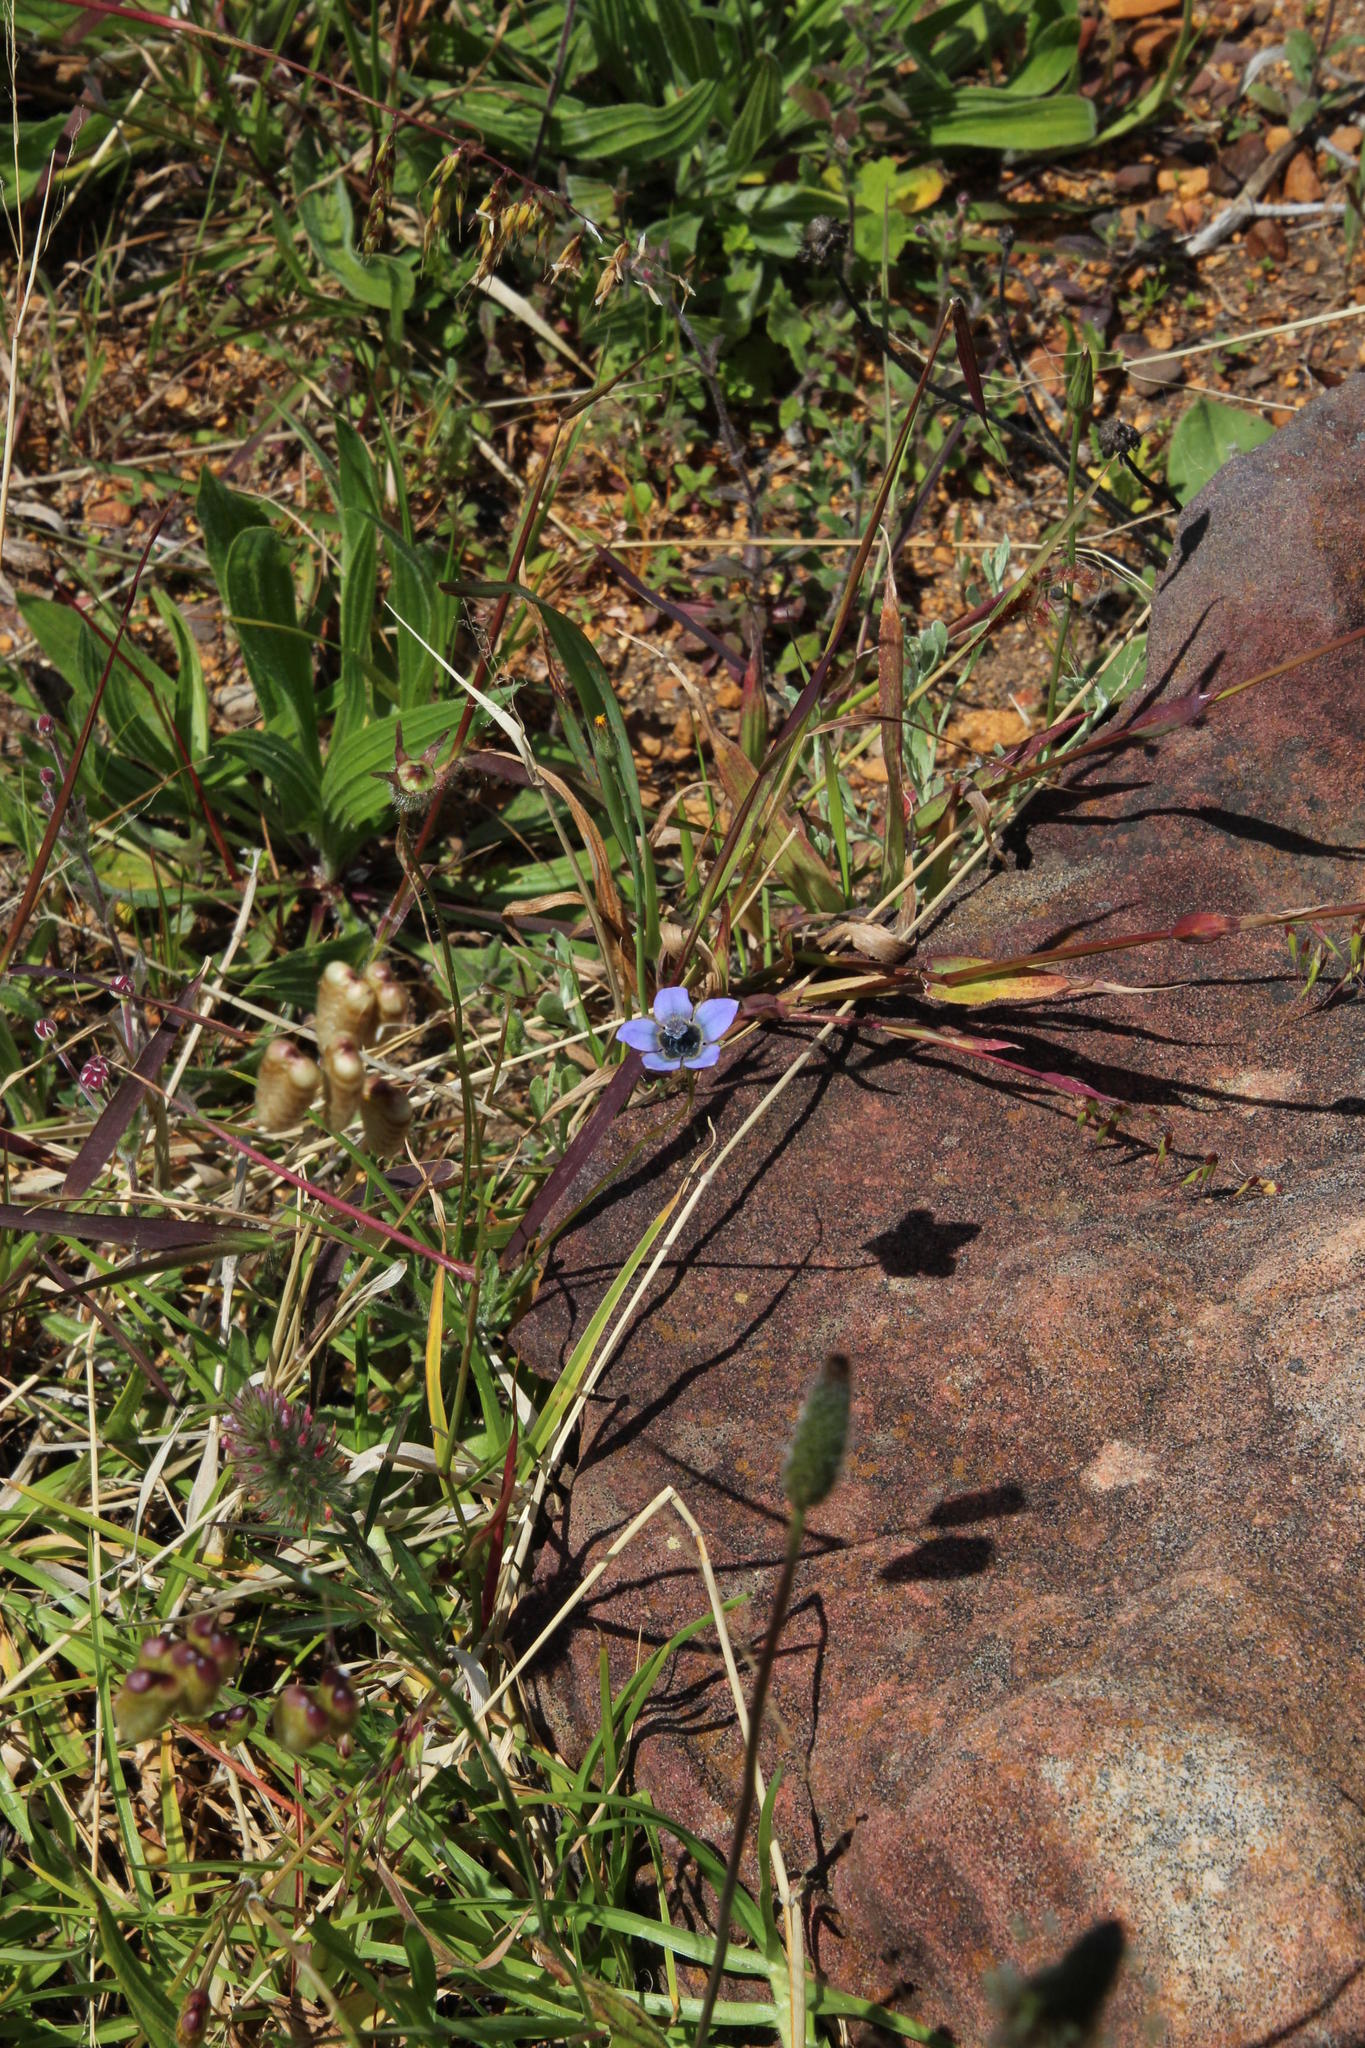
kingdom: Plantae
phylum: Tracheophyta
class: Magnoliopsida
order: Asterales
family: Campanulaceae
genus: Wahlenbergia
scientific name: Wahlenbergia capensis
